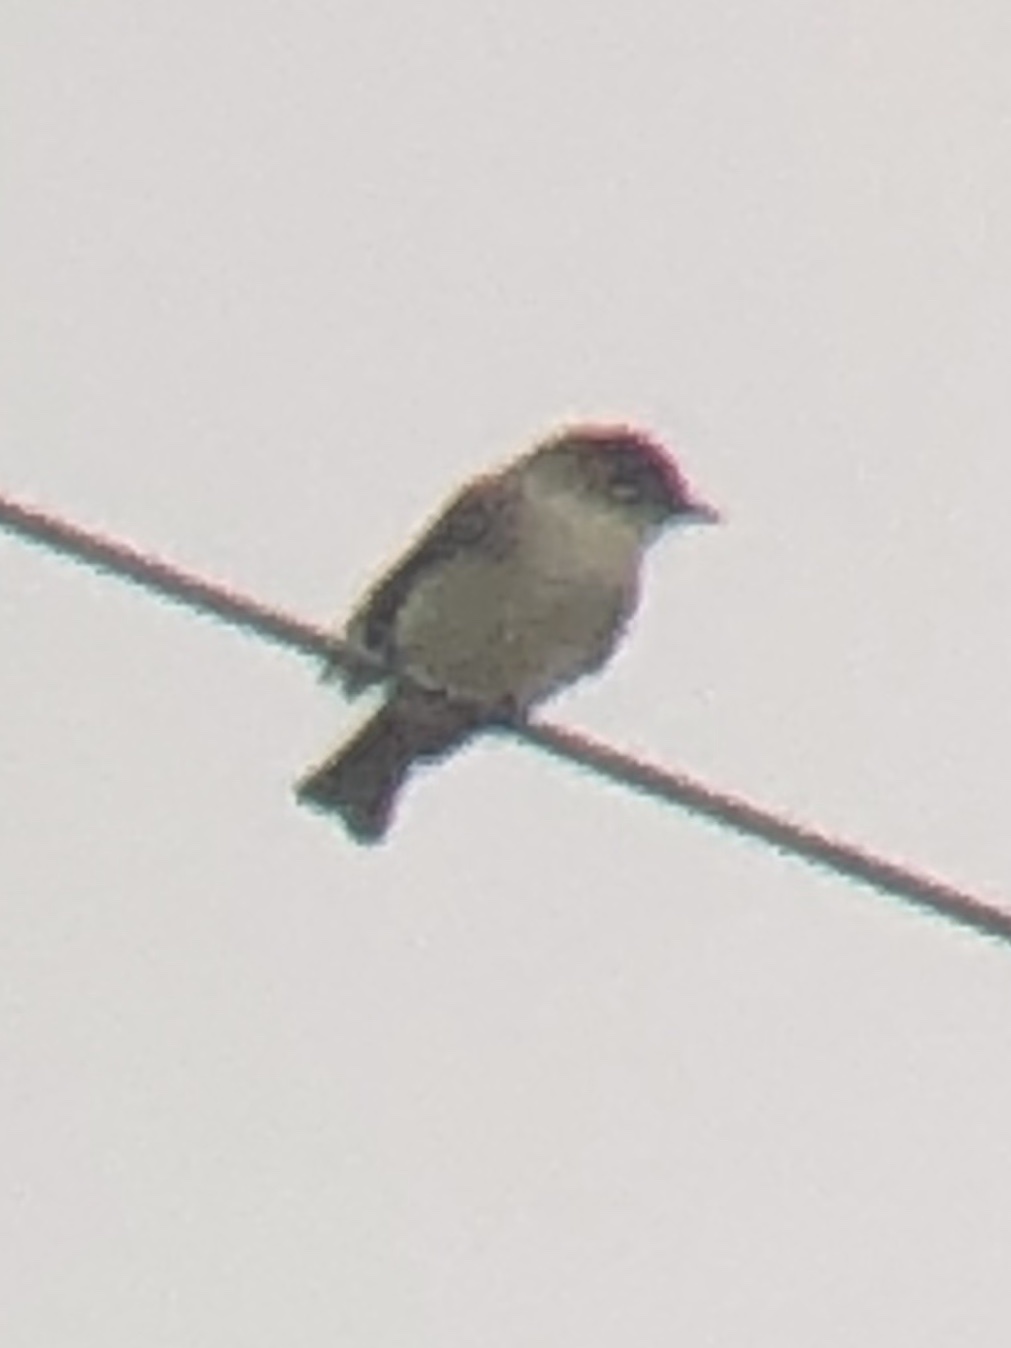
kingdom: Animalia
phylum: Chordata
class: Aves
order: Passeriformes
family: Tyrannidae
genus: Sayornis
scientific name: Sayornis phoebe
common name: Eastern phoebe
